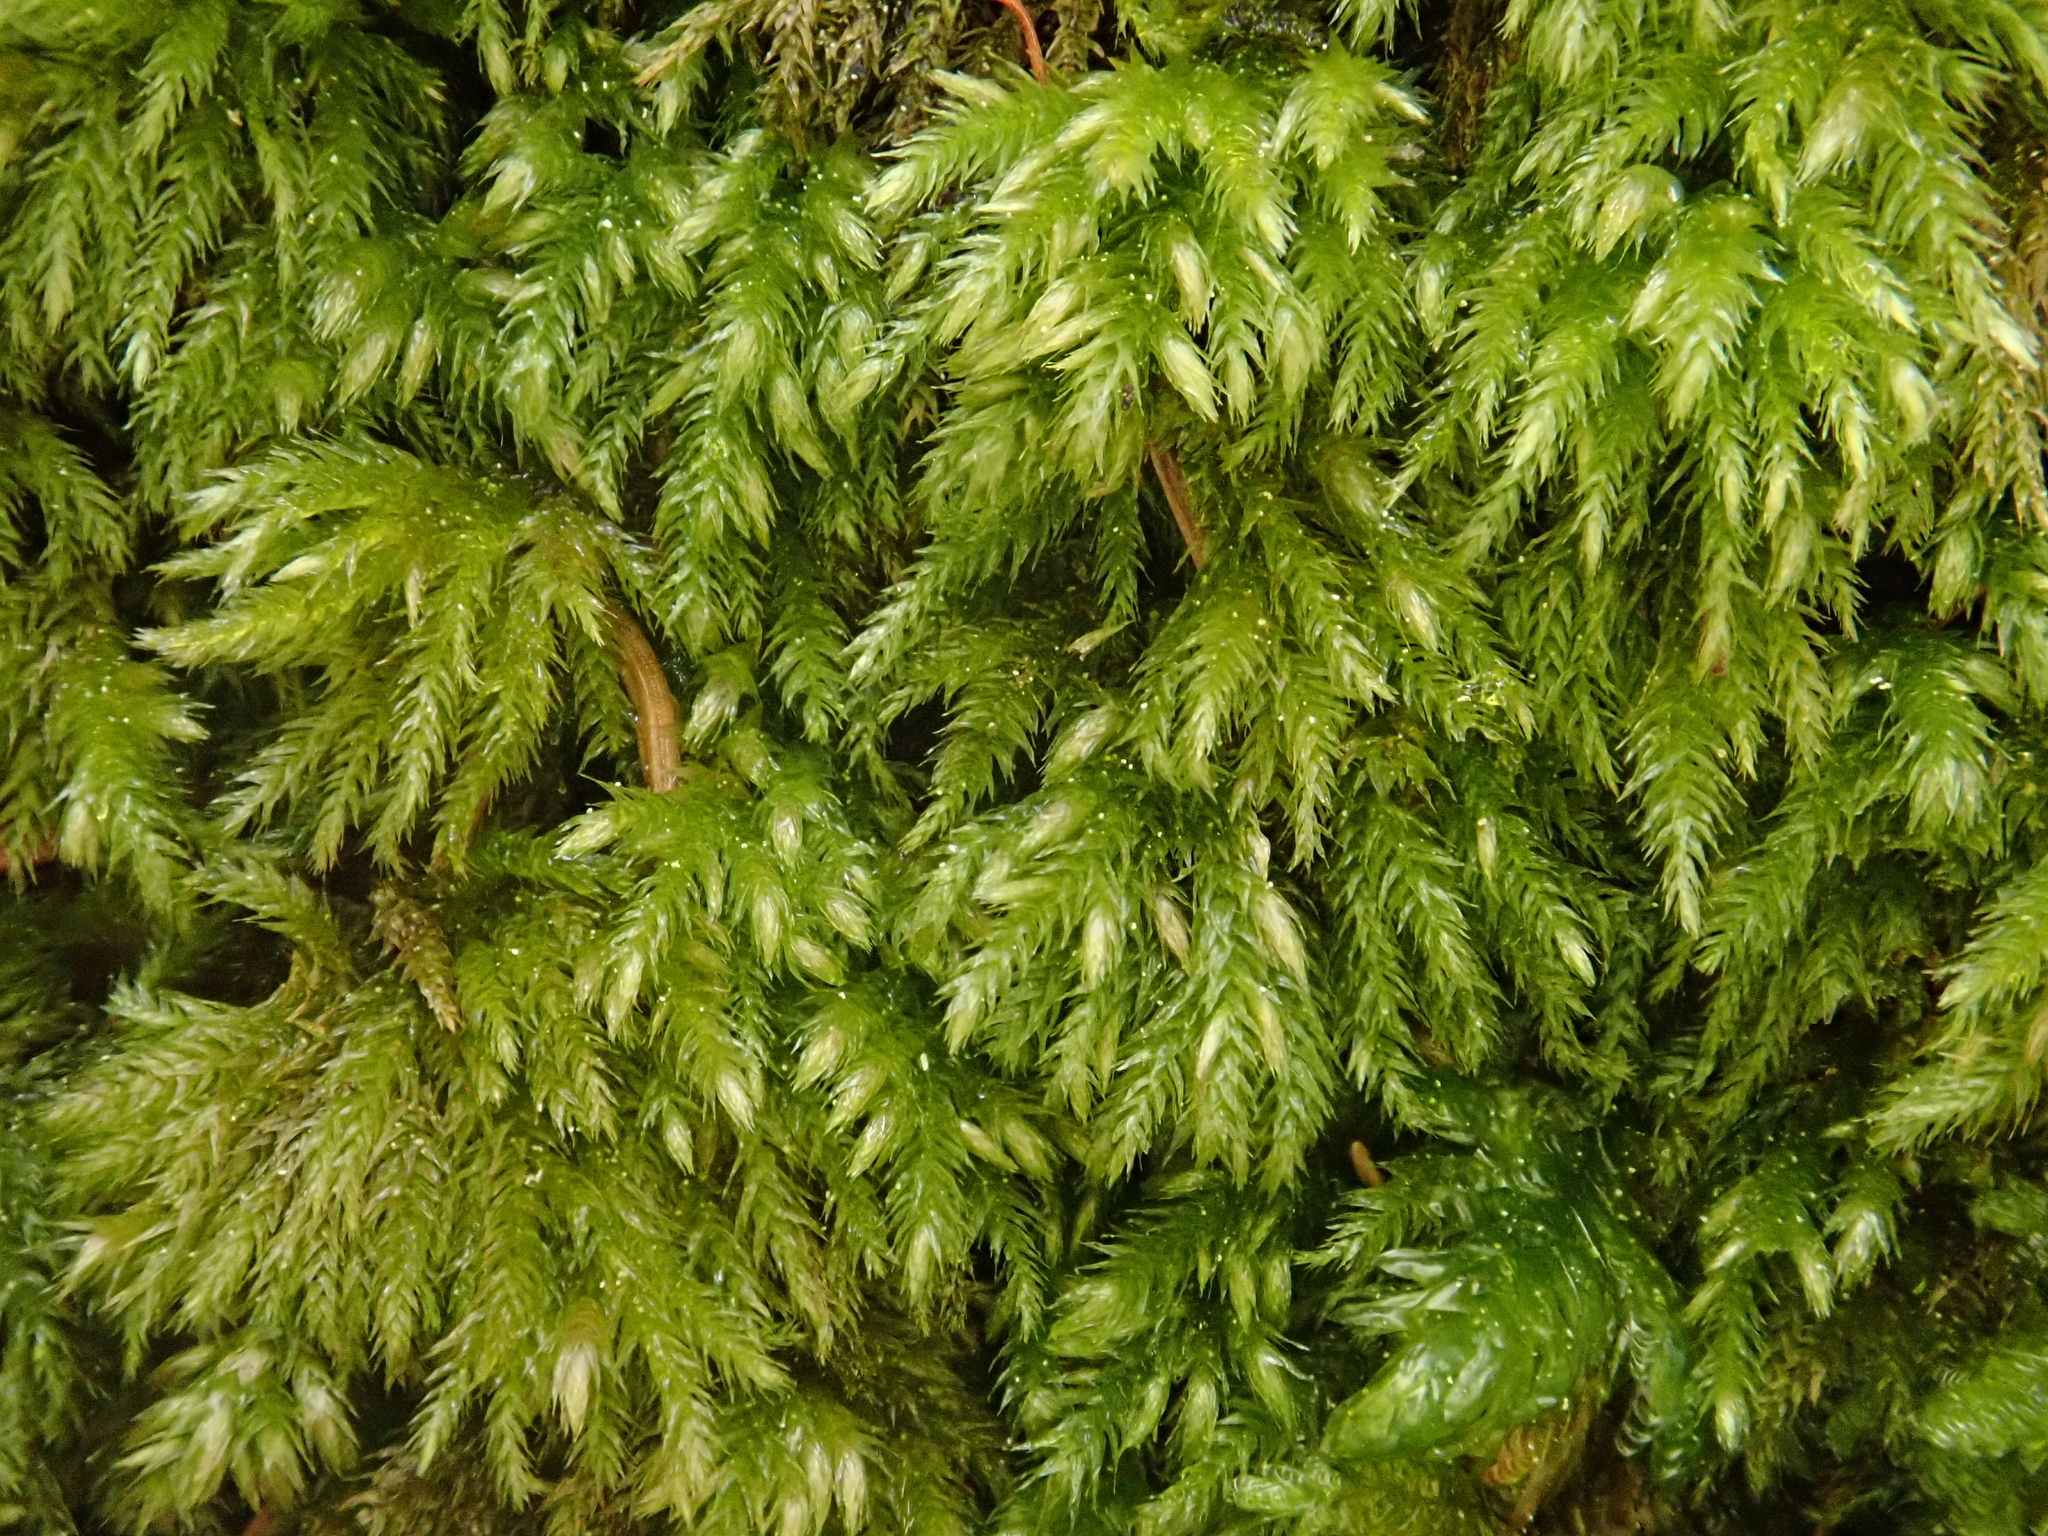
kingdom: Plantae
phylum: Bryophyta
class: Bryopsida
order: Hypnales
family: Brachytheciaceae
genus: Plasteurhynchium
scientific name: Plasteurhynchium striatulum
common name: Lesser striated feather-moss
